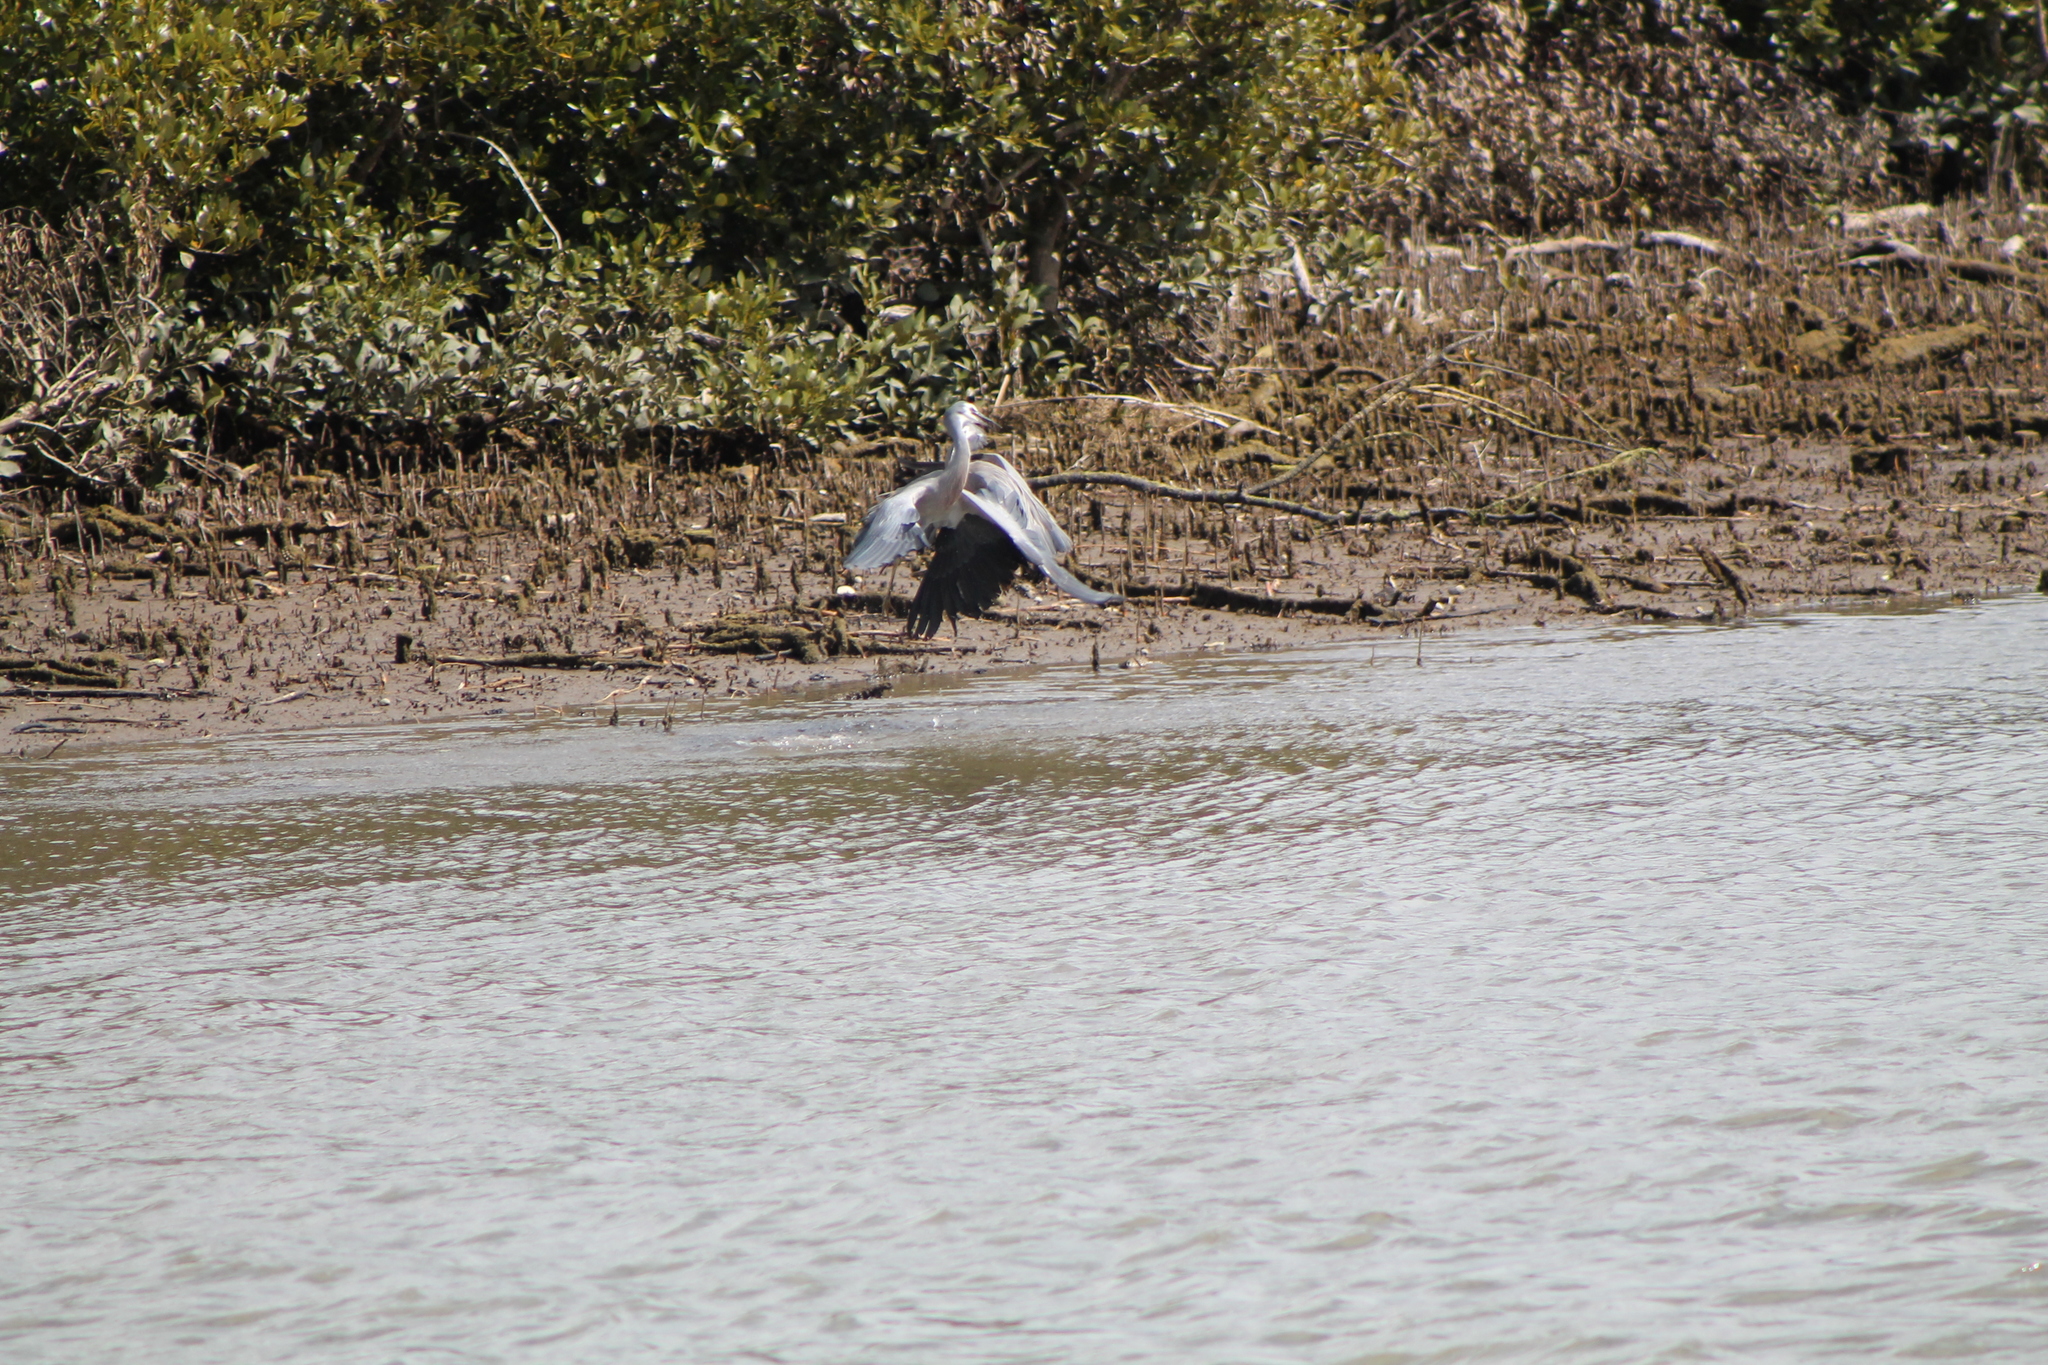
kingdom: Animalia
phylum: Chordata
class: Aves
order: Pelecaniformes
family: Ardeidae
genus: Egretta
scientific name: Egretta novaehollandiae
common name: White-faced heron
